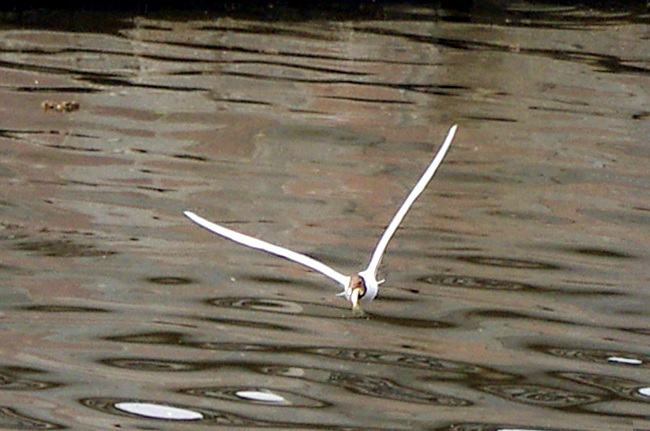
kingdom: Animalia
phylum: Chordata
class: Aves
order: Charadriiformes
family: Laridae
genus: Chroicocephalus
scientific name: Chroicocephalus ridibundus
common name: Black-headed gull
